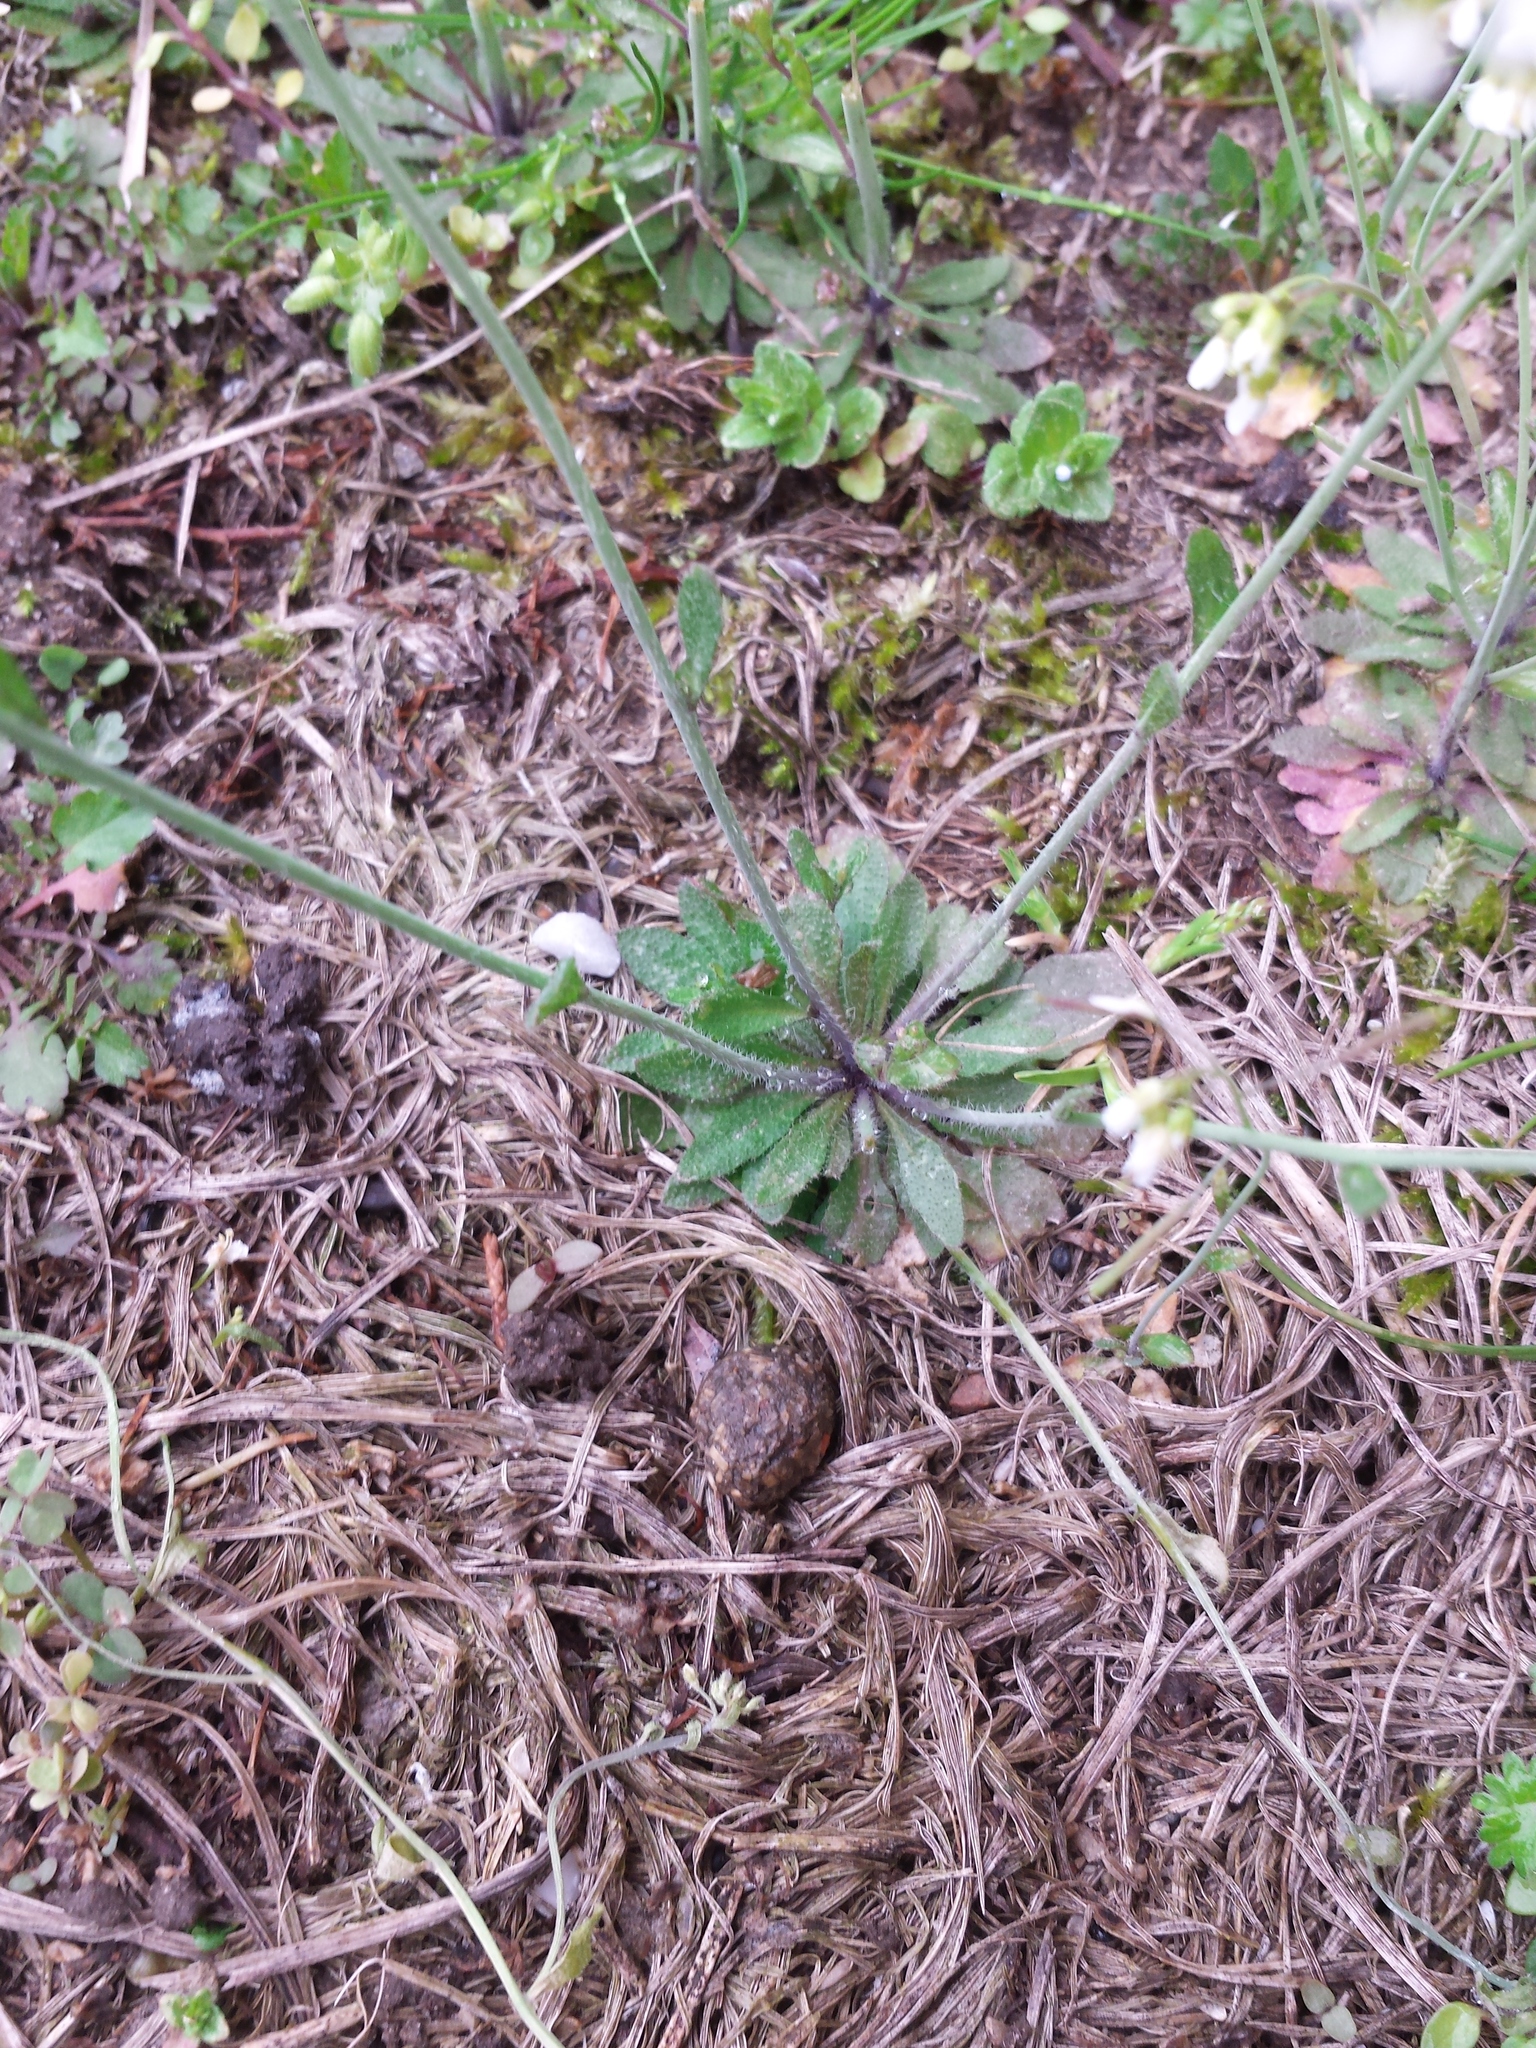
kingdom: Plantae
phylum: Tracheophyta
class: Magnoliopsida
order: Brassicales
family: Brassicaceae
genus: Arabidopsis
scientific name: Arabidopsis thaliana
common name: Thale cress
